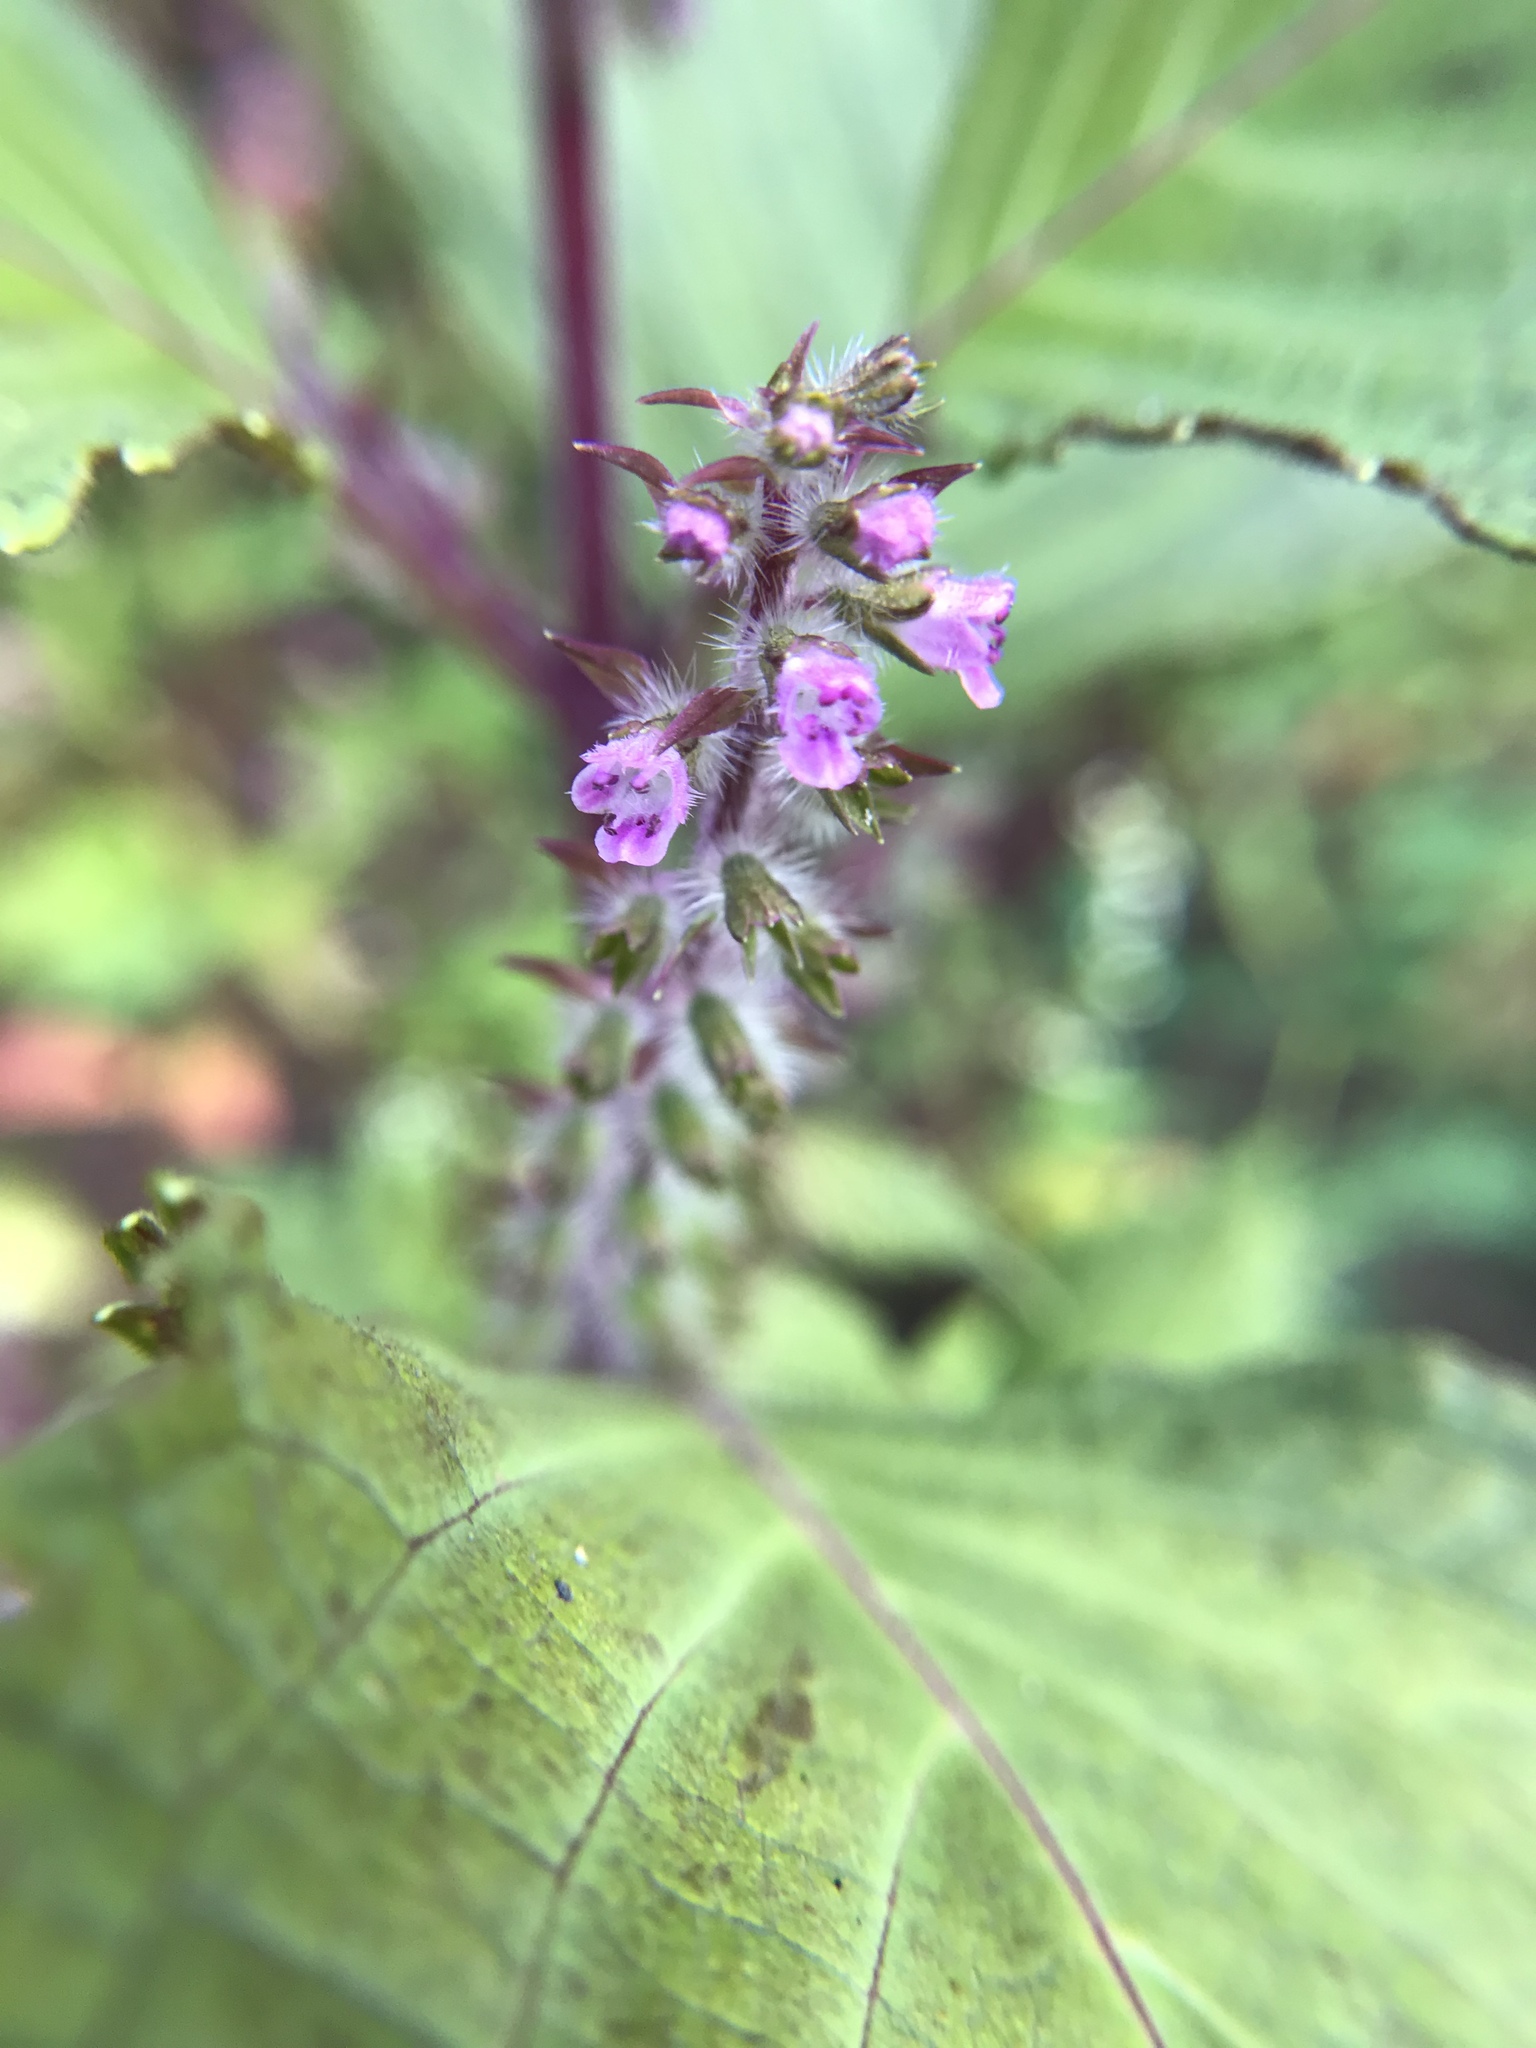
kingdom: Plantae
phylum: Tracheophyta
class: Magnoliopsida
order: Lamiales
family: Lamiaceae
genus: Perilla
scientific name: Perilla frutescens
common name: Perilla
